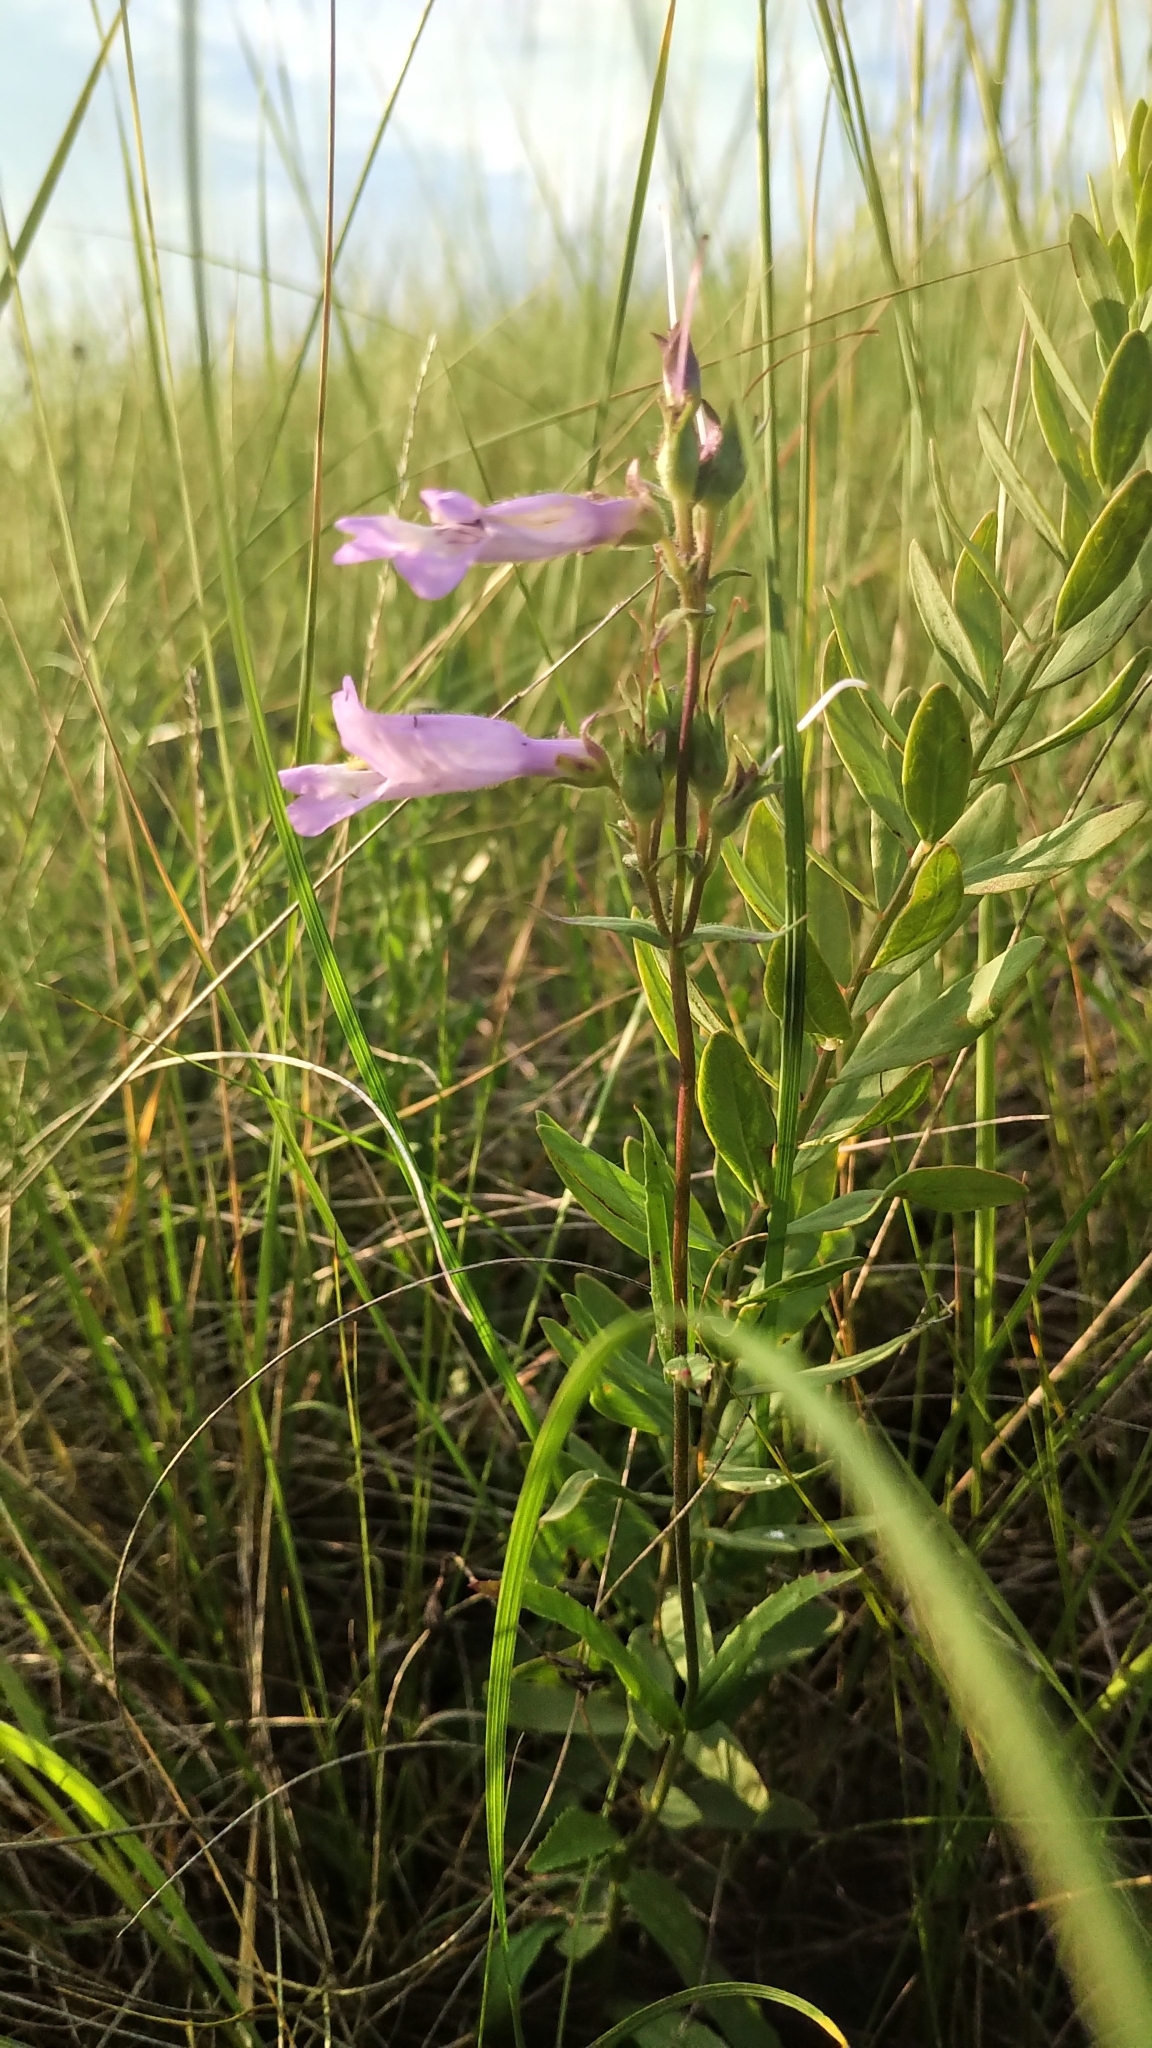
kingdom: Plantae
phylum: Tracheophyta
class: Magnoliopsida
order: Lamiales
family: Plantaginaceae
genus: Penstemon
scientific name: Penstemon gracilis
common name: Slender beardtongue
